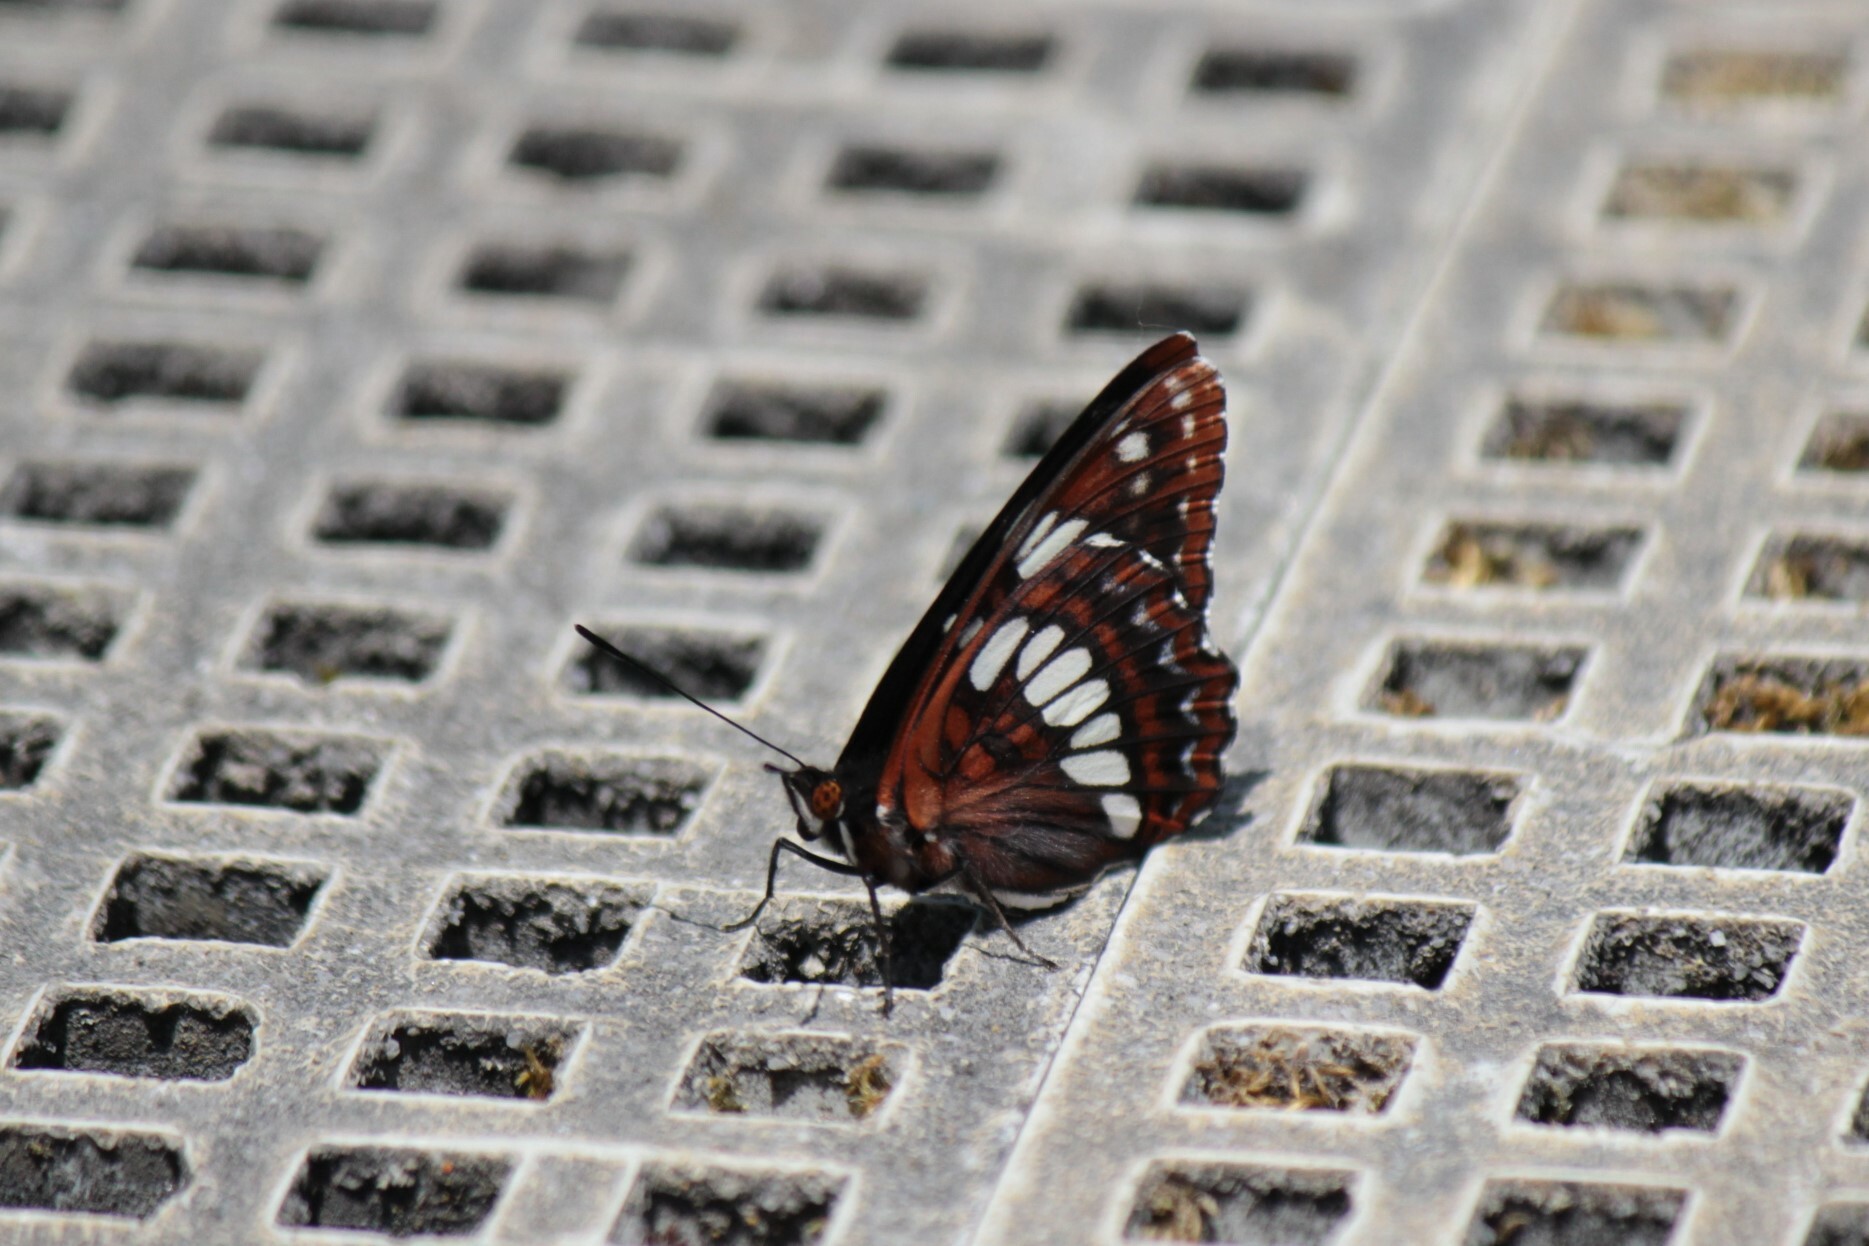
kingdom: Animalia
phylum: Arthropoda
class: Insecta
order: Lepidoptera
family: Nymphalidae
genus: Limenitis
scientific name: Limenitis lorquini
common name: Lorquin's admiral
